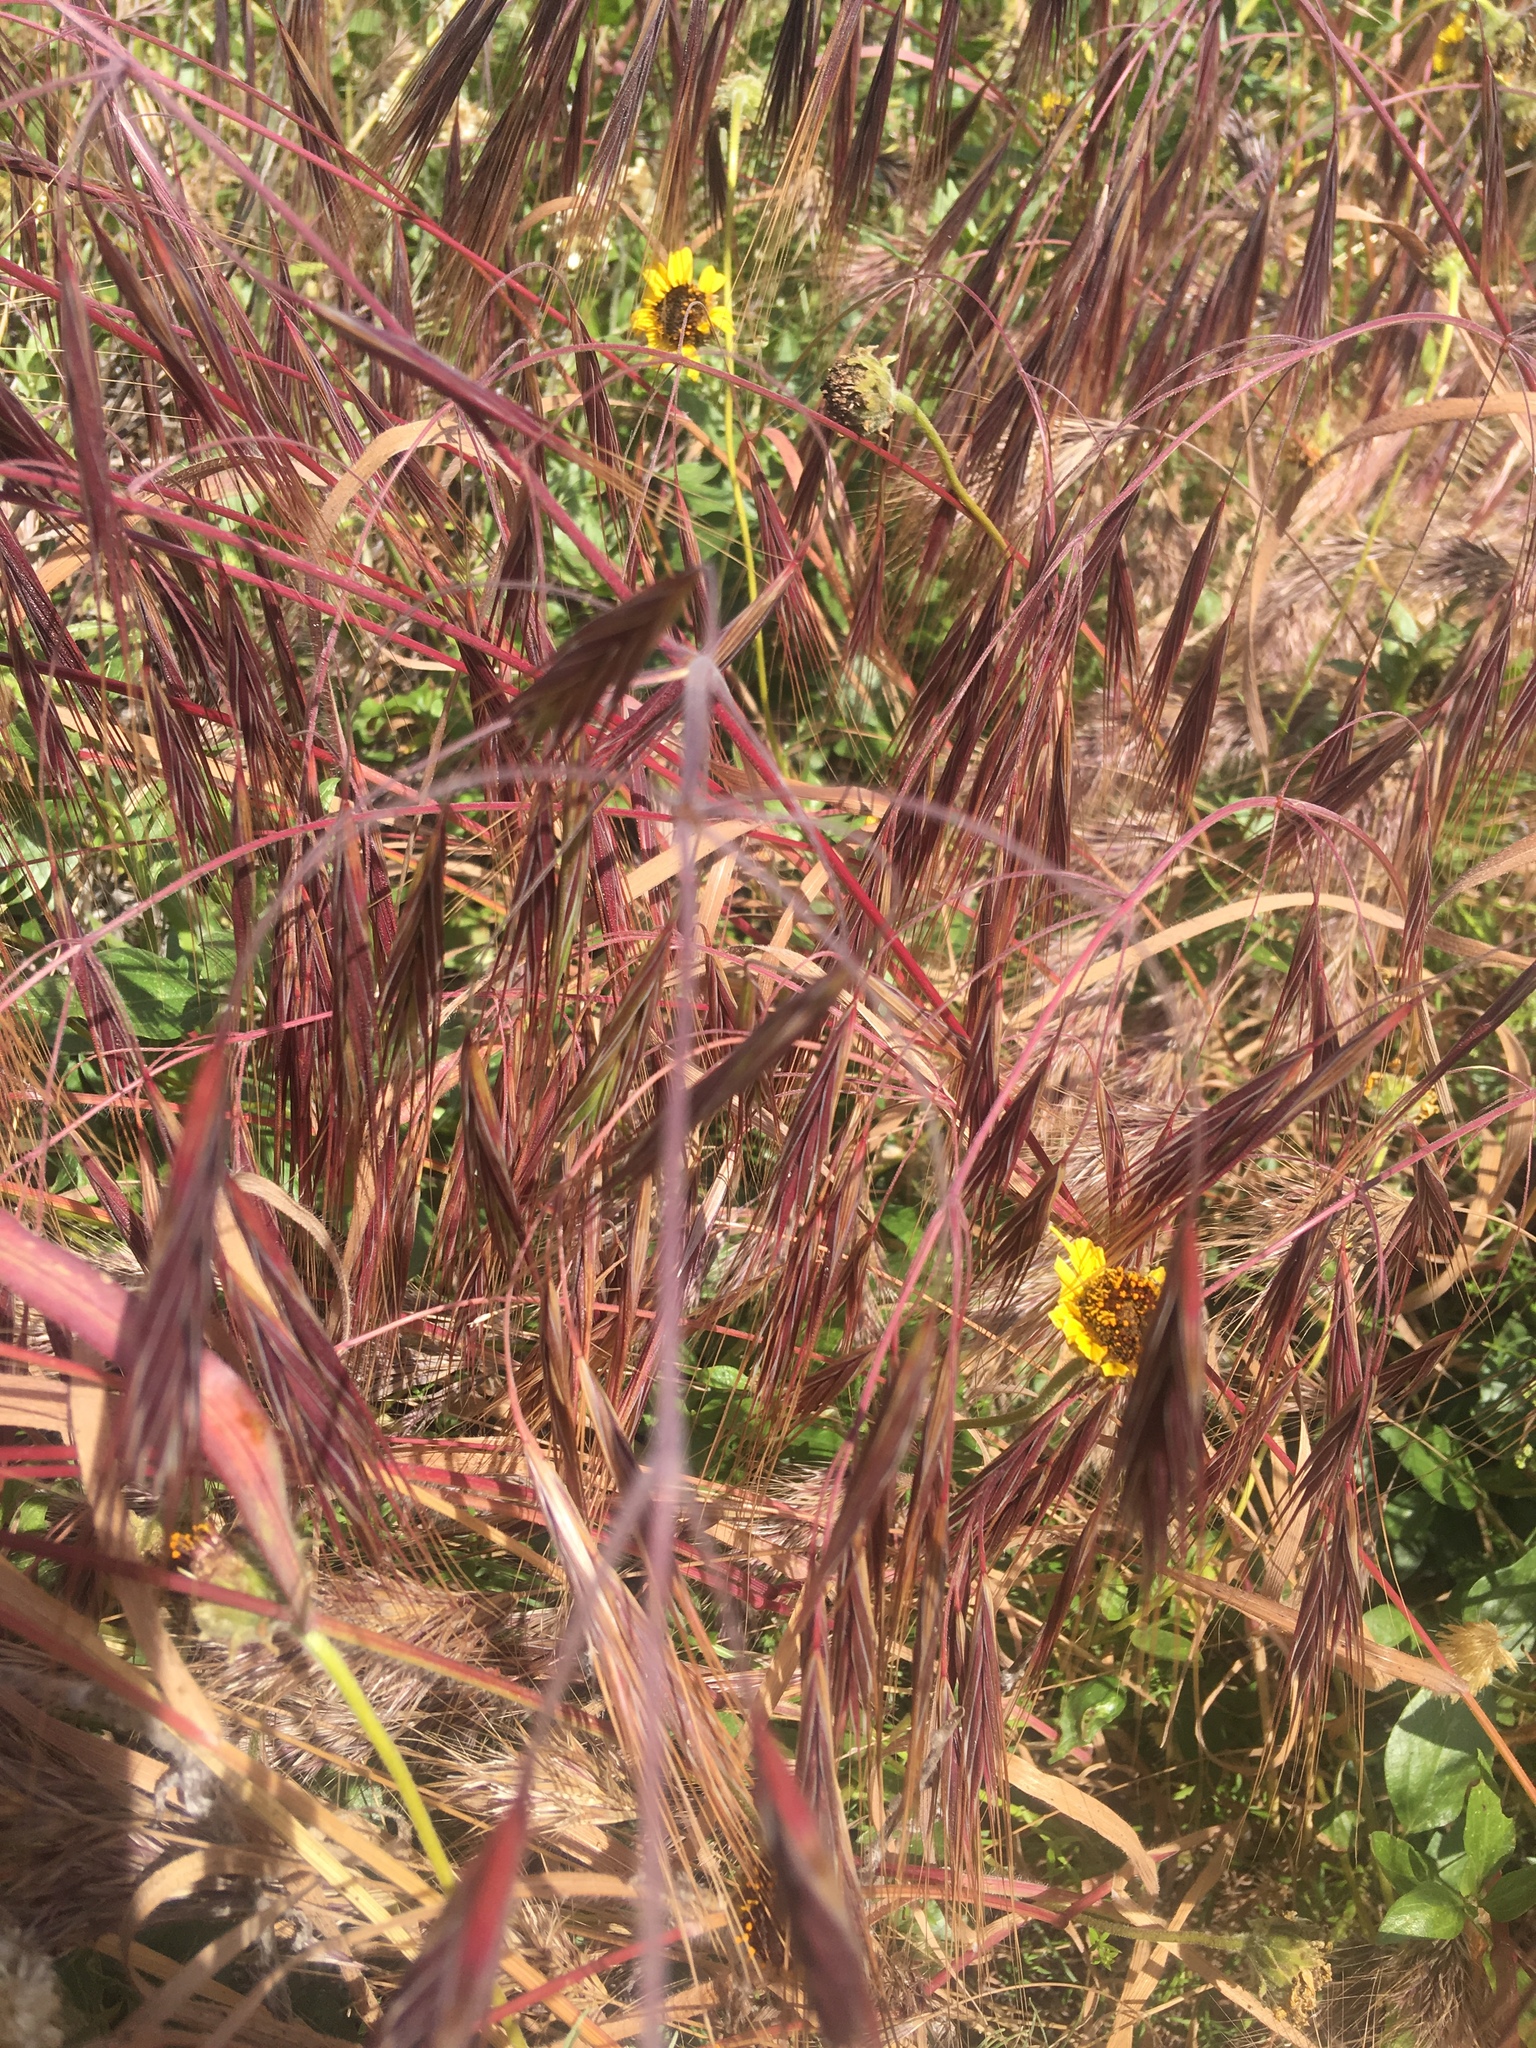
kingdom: Plantae
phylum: Tracheophyta
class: Liliopsida
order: Poales
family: Poaceae
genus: Bromus
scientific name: Bromus diandrus
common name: Ripgut brome
